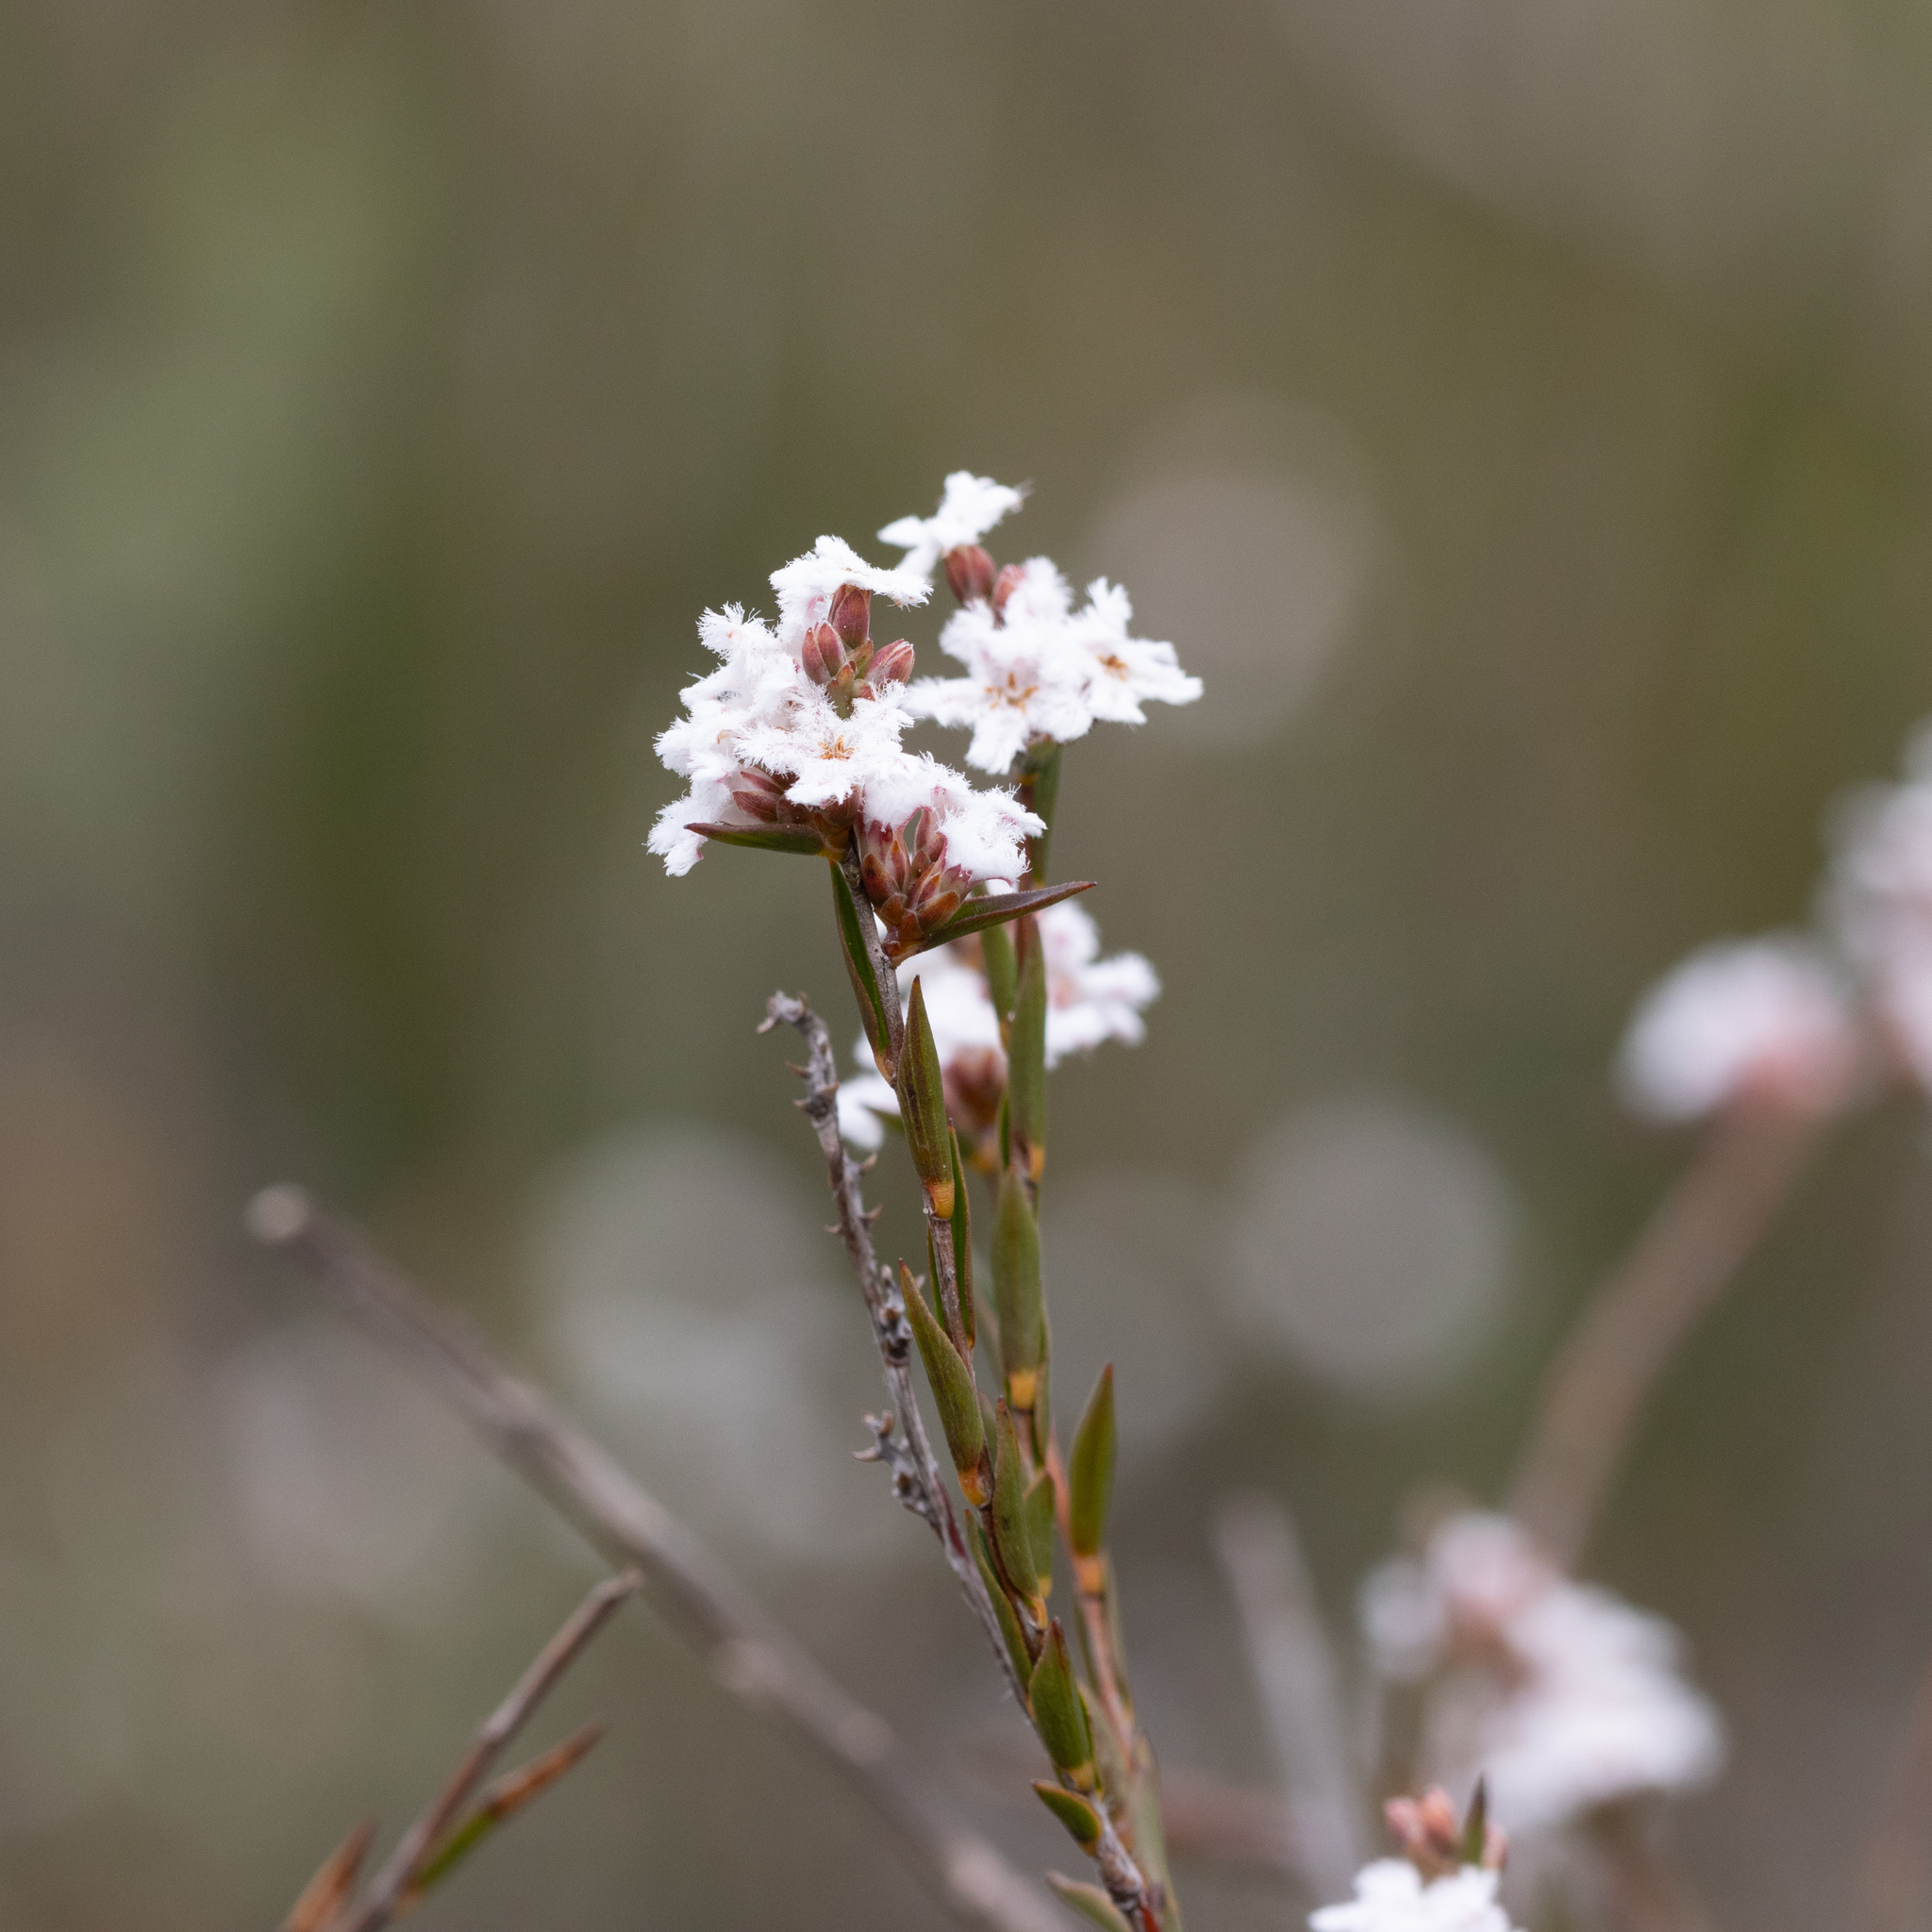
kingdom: Plantae
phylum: Tracheophyta
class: Magnoliopsida
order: Ericales
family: Ericaceae
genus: Leucopogon
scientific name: Leucopogon virgatus
